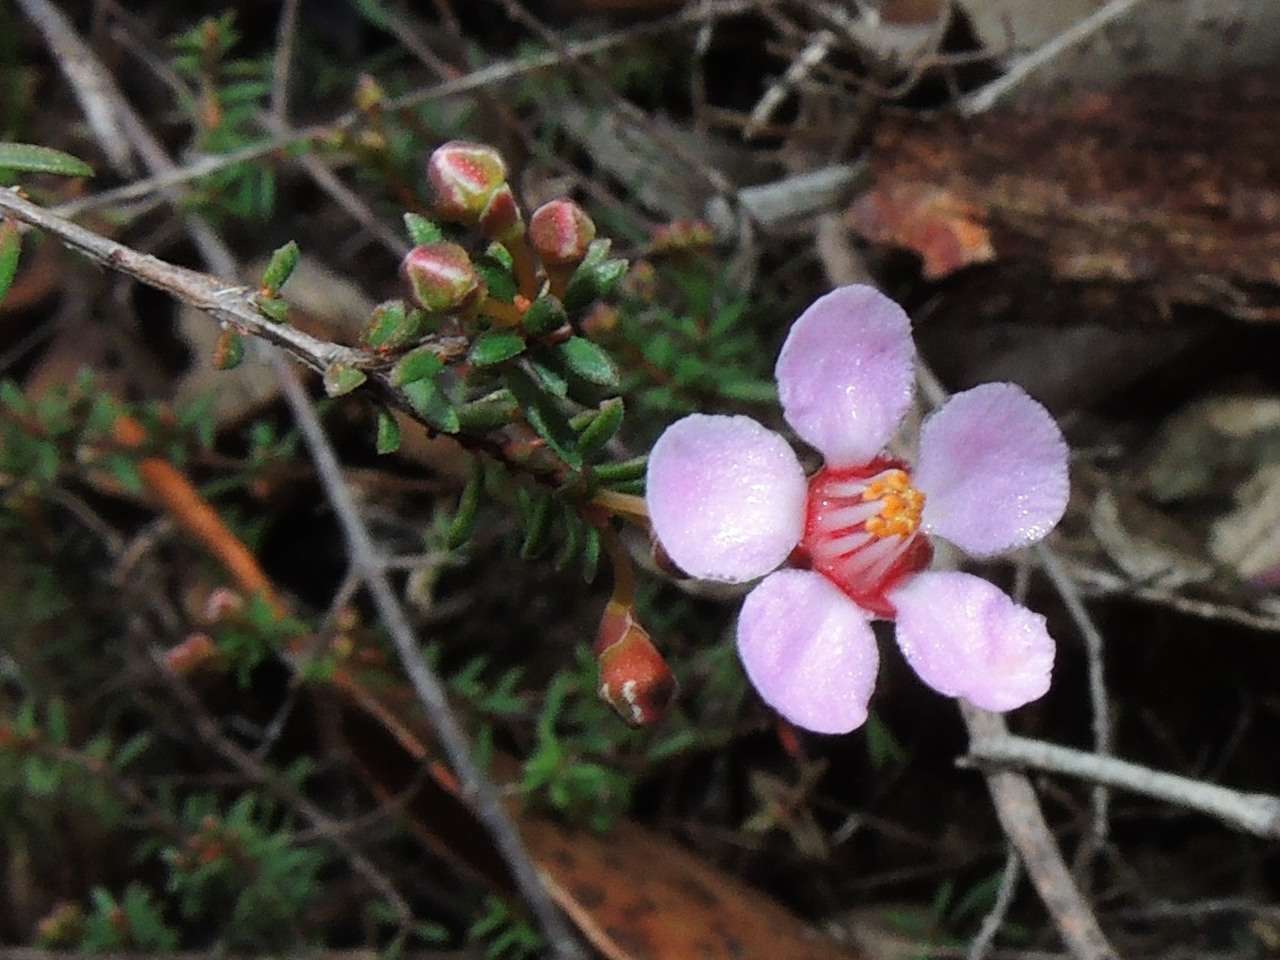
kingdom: Plantae
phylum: Tracheophyta
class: Magnoliopsida
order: Myrtales
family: Myrtaceae
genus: Euryomyrtus
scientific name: Euryomyrtus ramosissima
